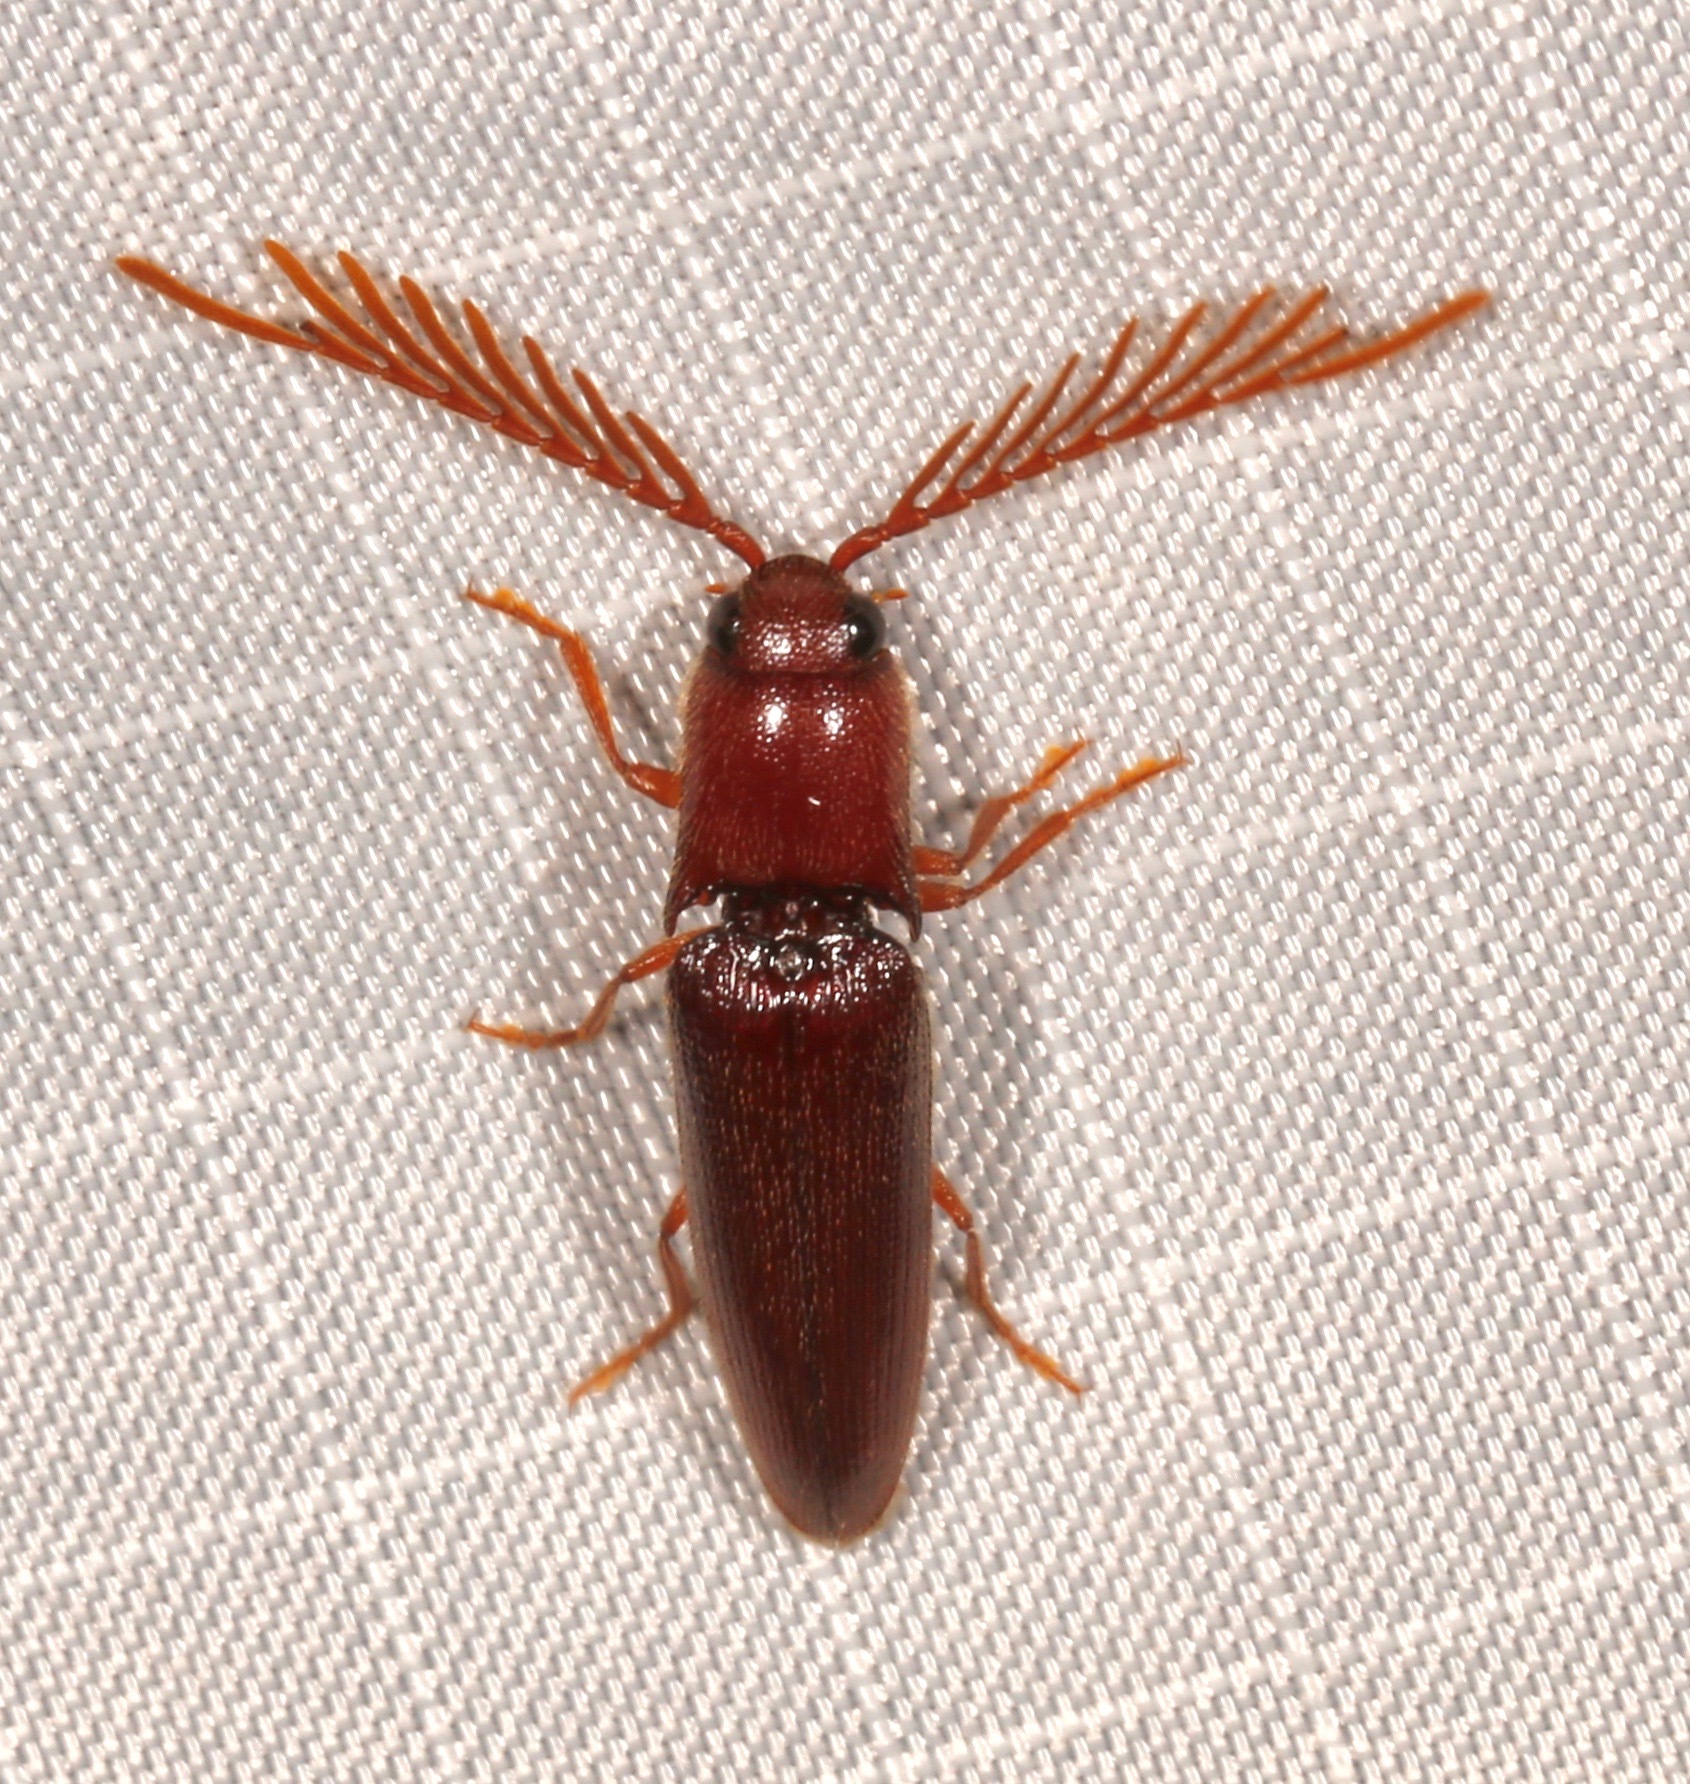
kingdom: Animalia
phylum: Arthropoda
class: Insecta
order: Coleoptera
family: Elateridae
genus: Dicrepidius
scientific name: Dicrepidius palmatus
